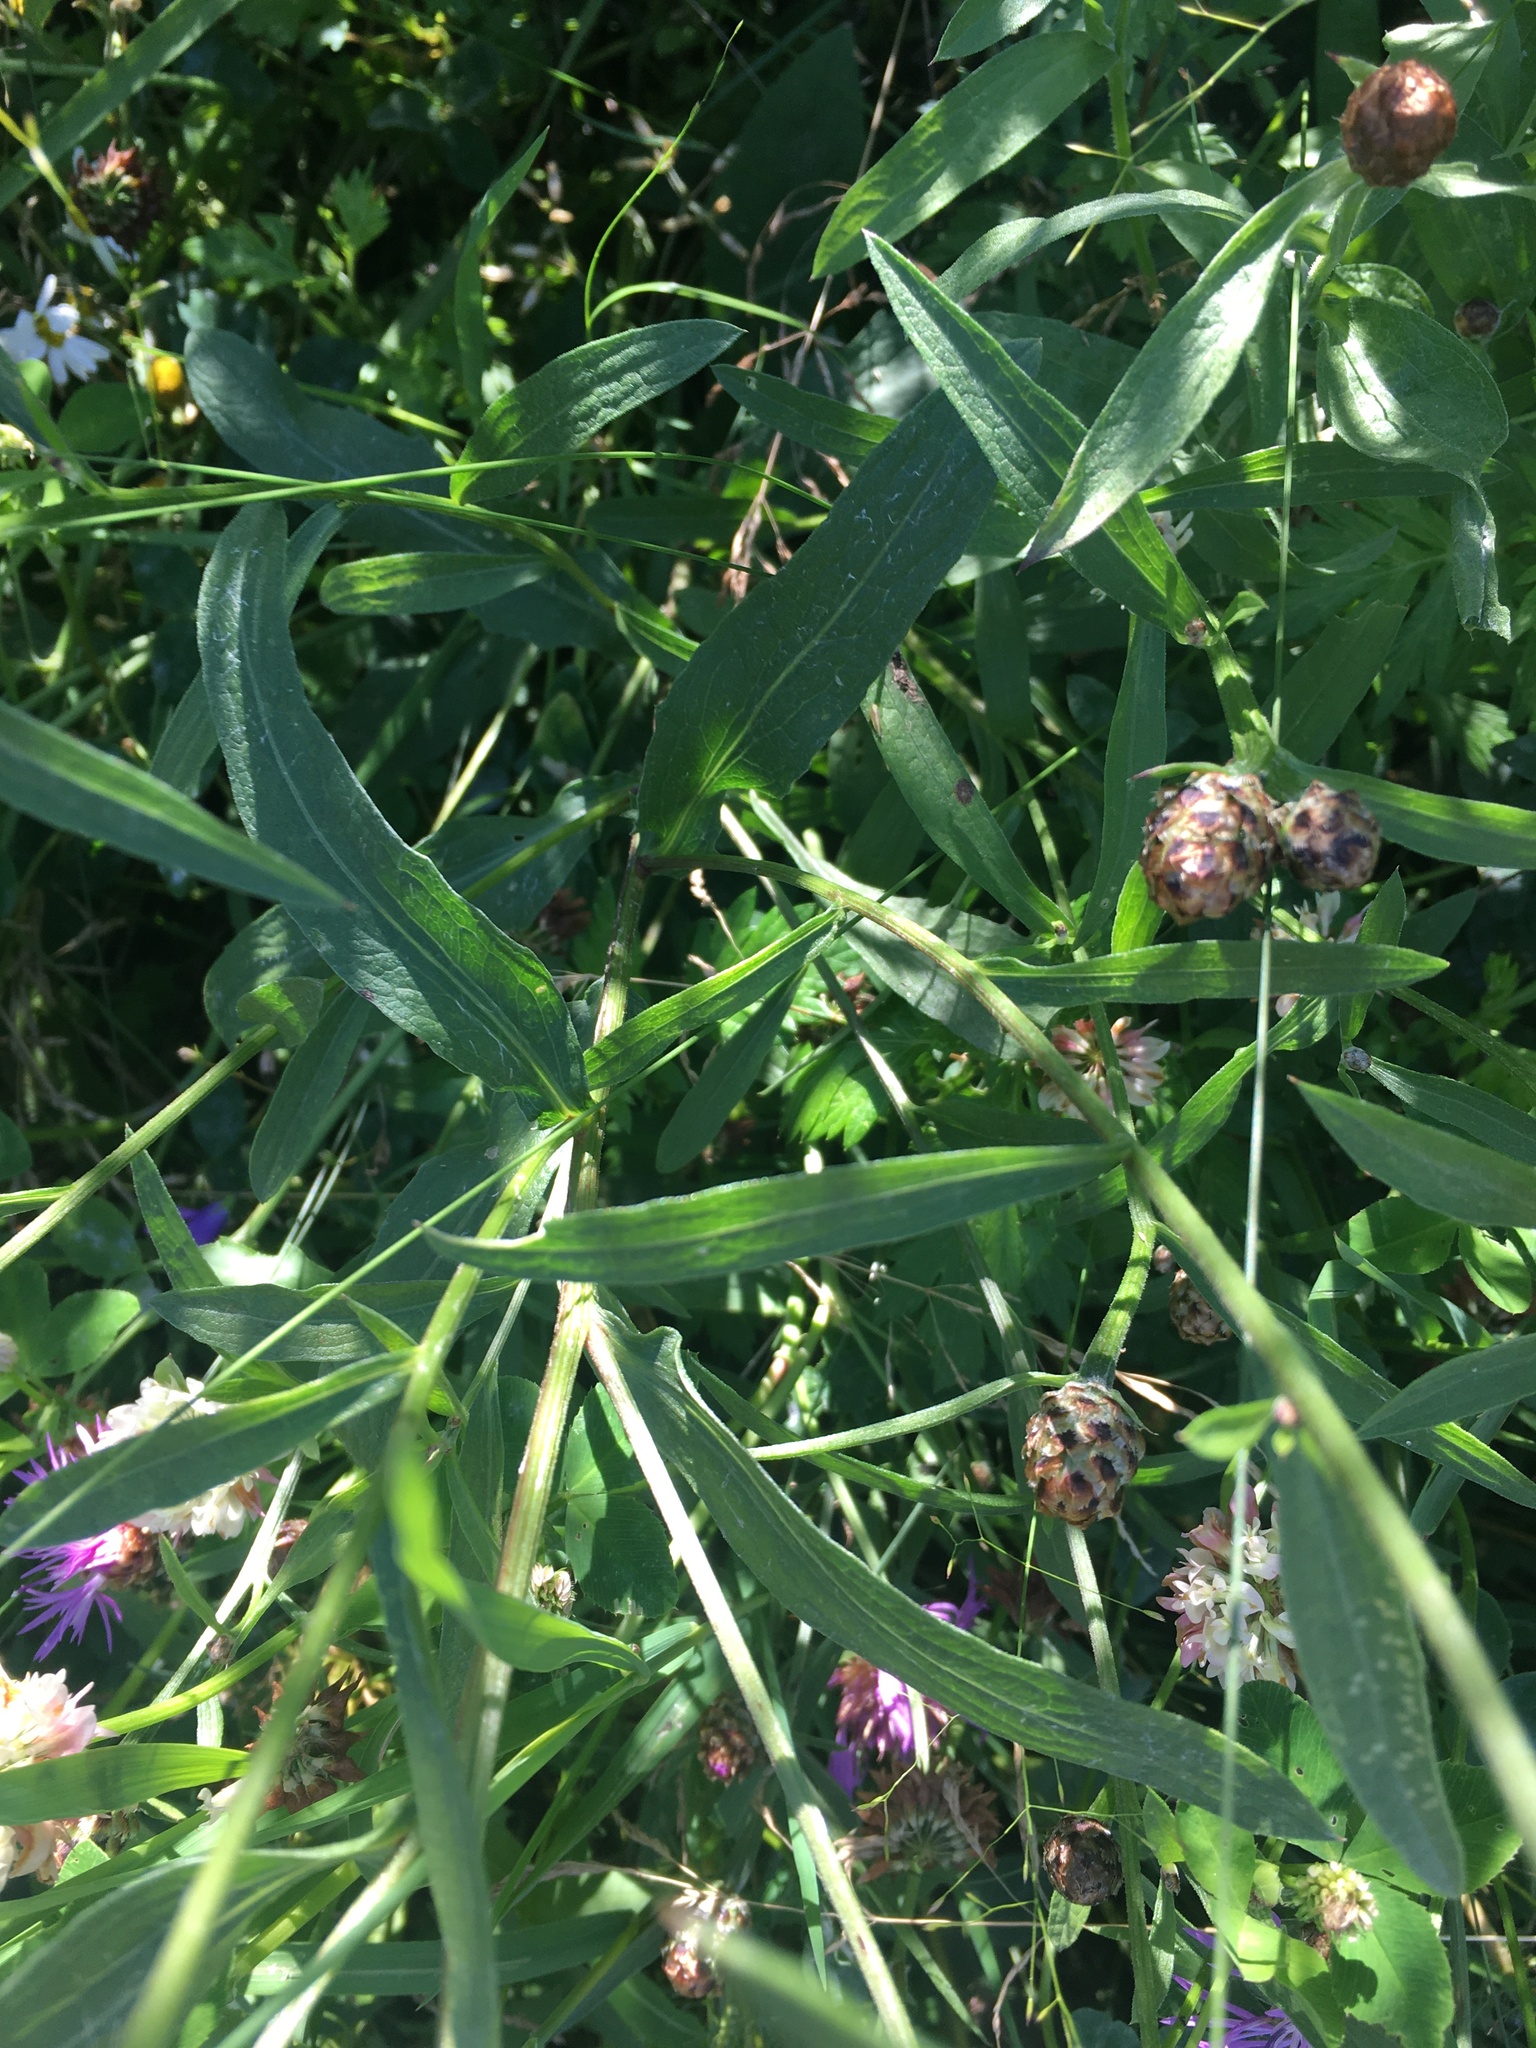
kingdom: Plantae
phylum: Tracheophyta
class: Magnoliopsida
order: Asterales
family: Asteraceae
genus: Centaurea
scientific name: Centaurea jacea
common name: Brown knapweed
